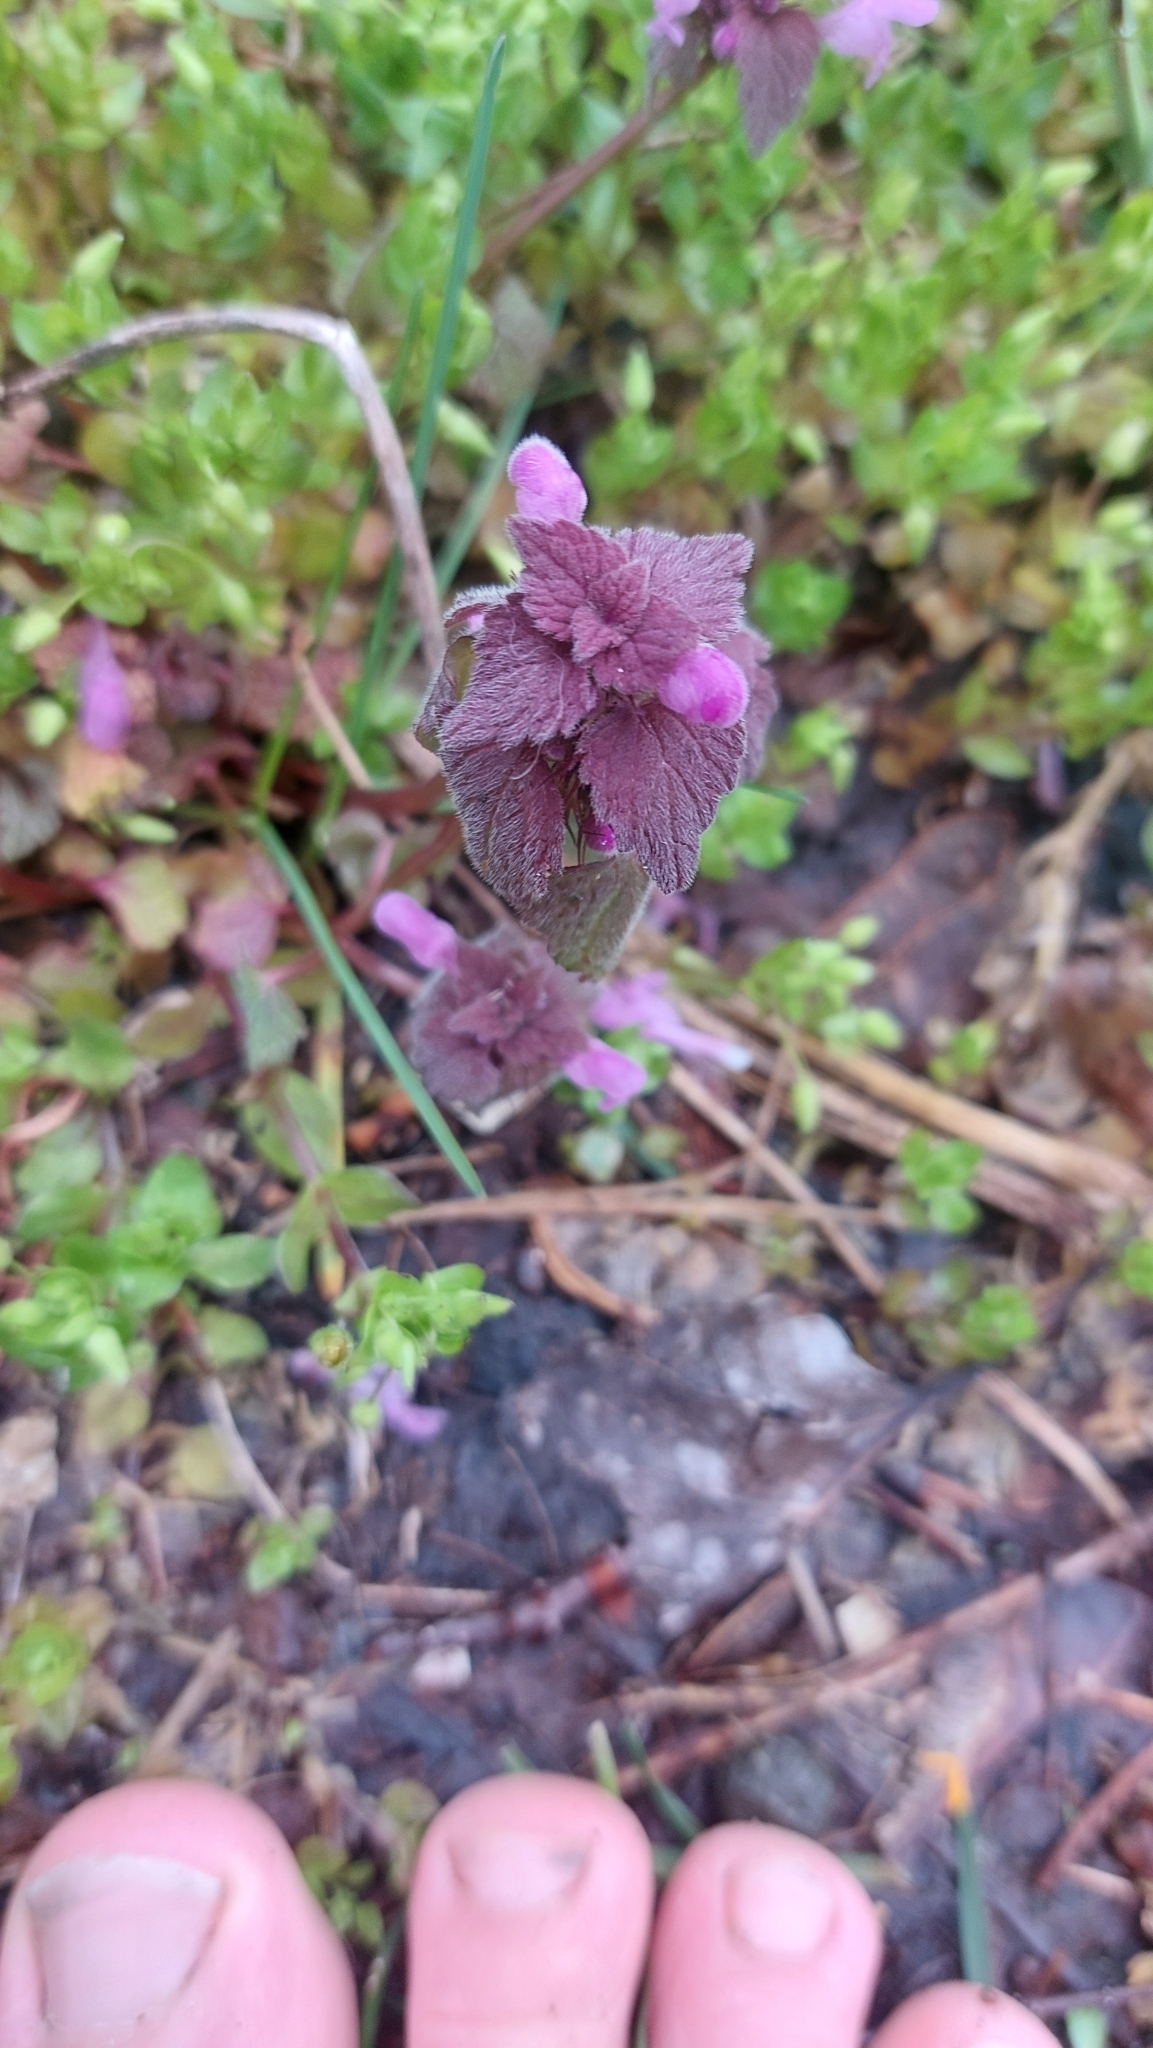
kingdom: Plantae
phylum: Tracheophyta
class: Magnoliopsida
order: Lamiales
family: Lamiaceae
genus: Lamium
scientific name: Lamium purpureum
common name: Red dead-nettle
